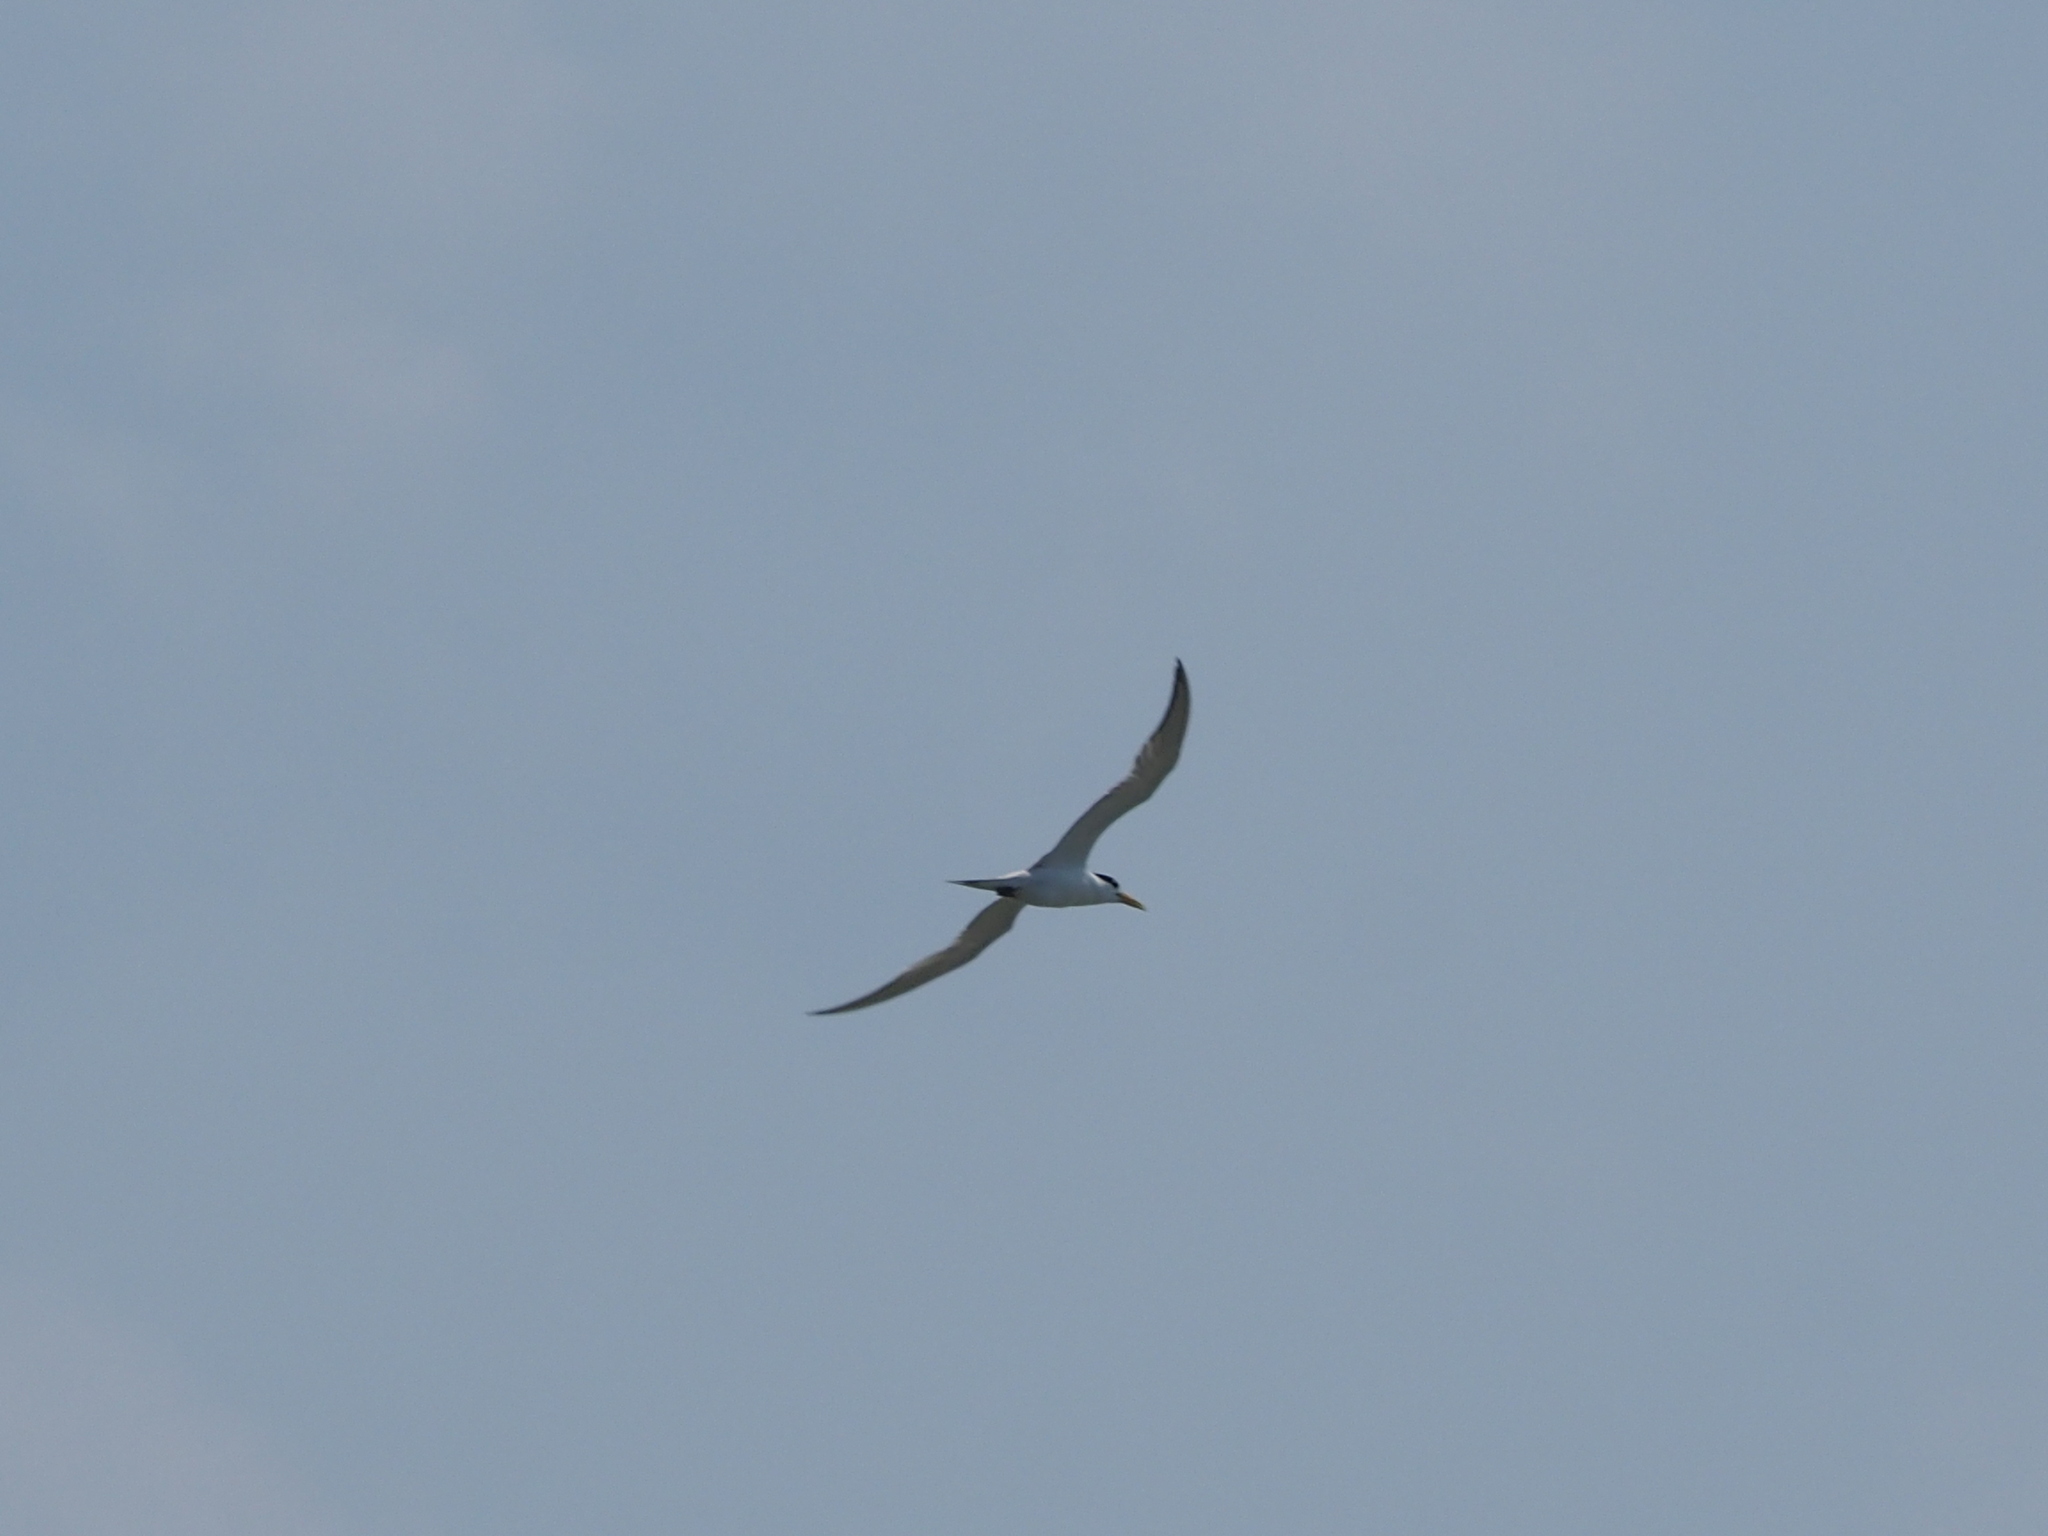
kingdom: Animalia
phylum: Chordata
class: Aves
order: Charadriiformes
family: Laridae
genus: Thalasseus
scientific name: Thalasseus bergii
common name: Greater crested tern
